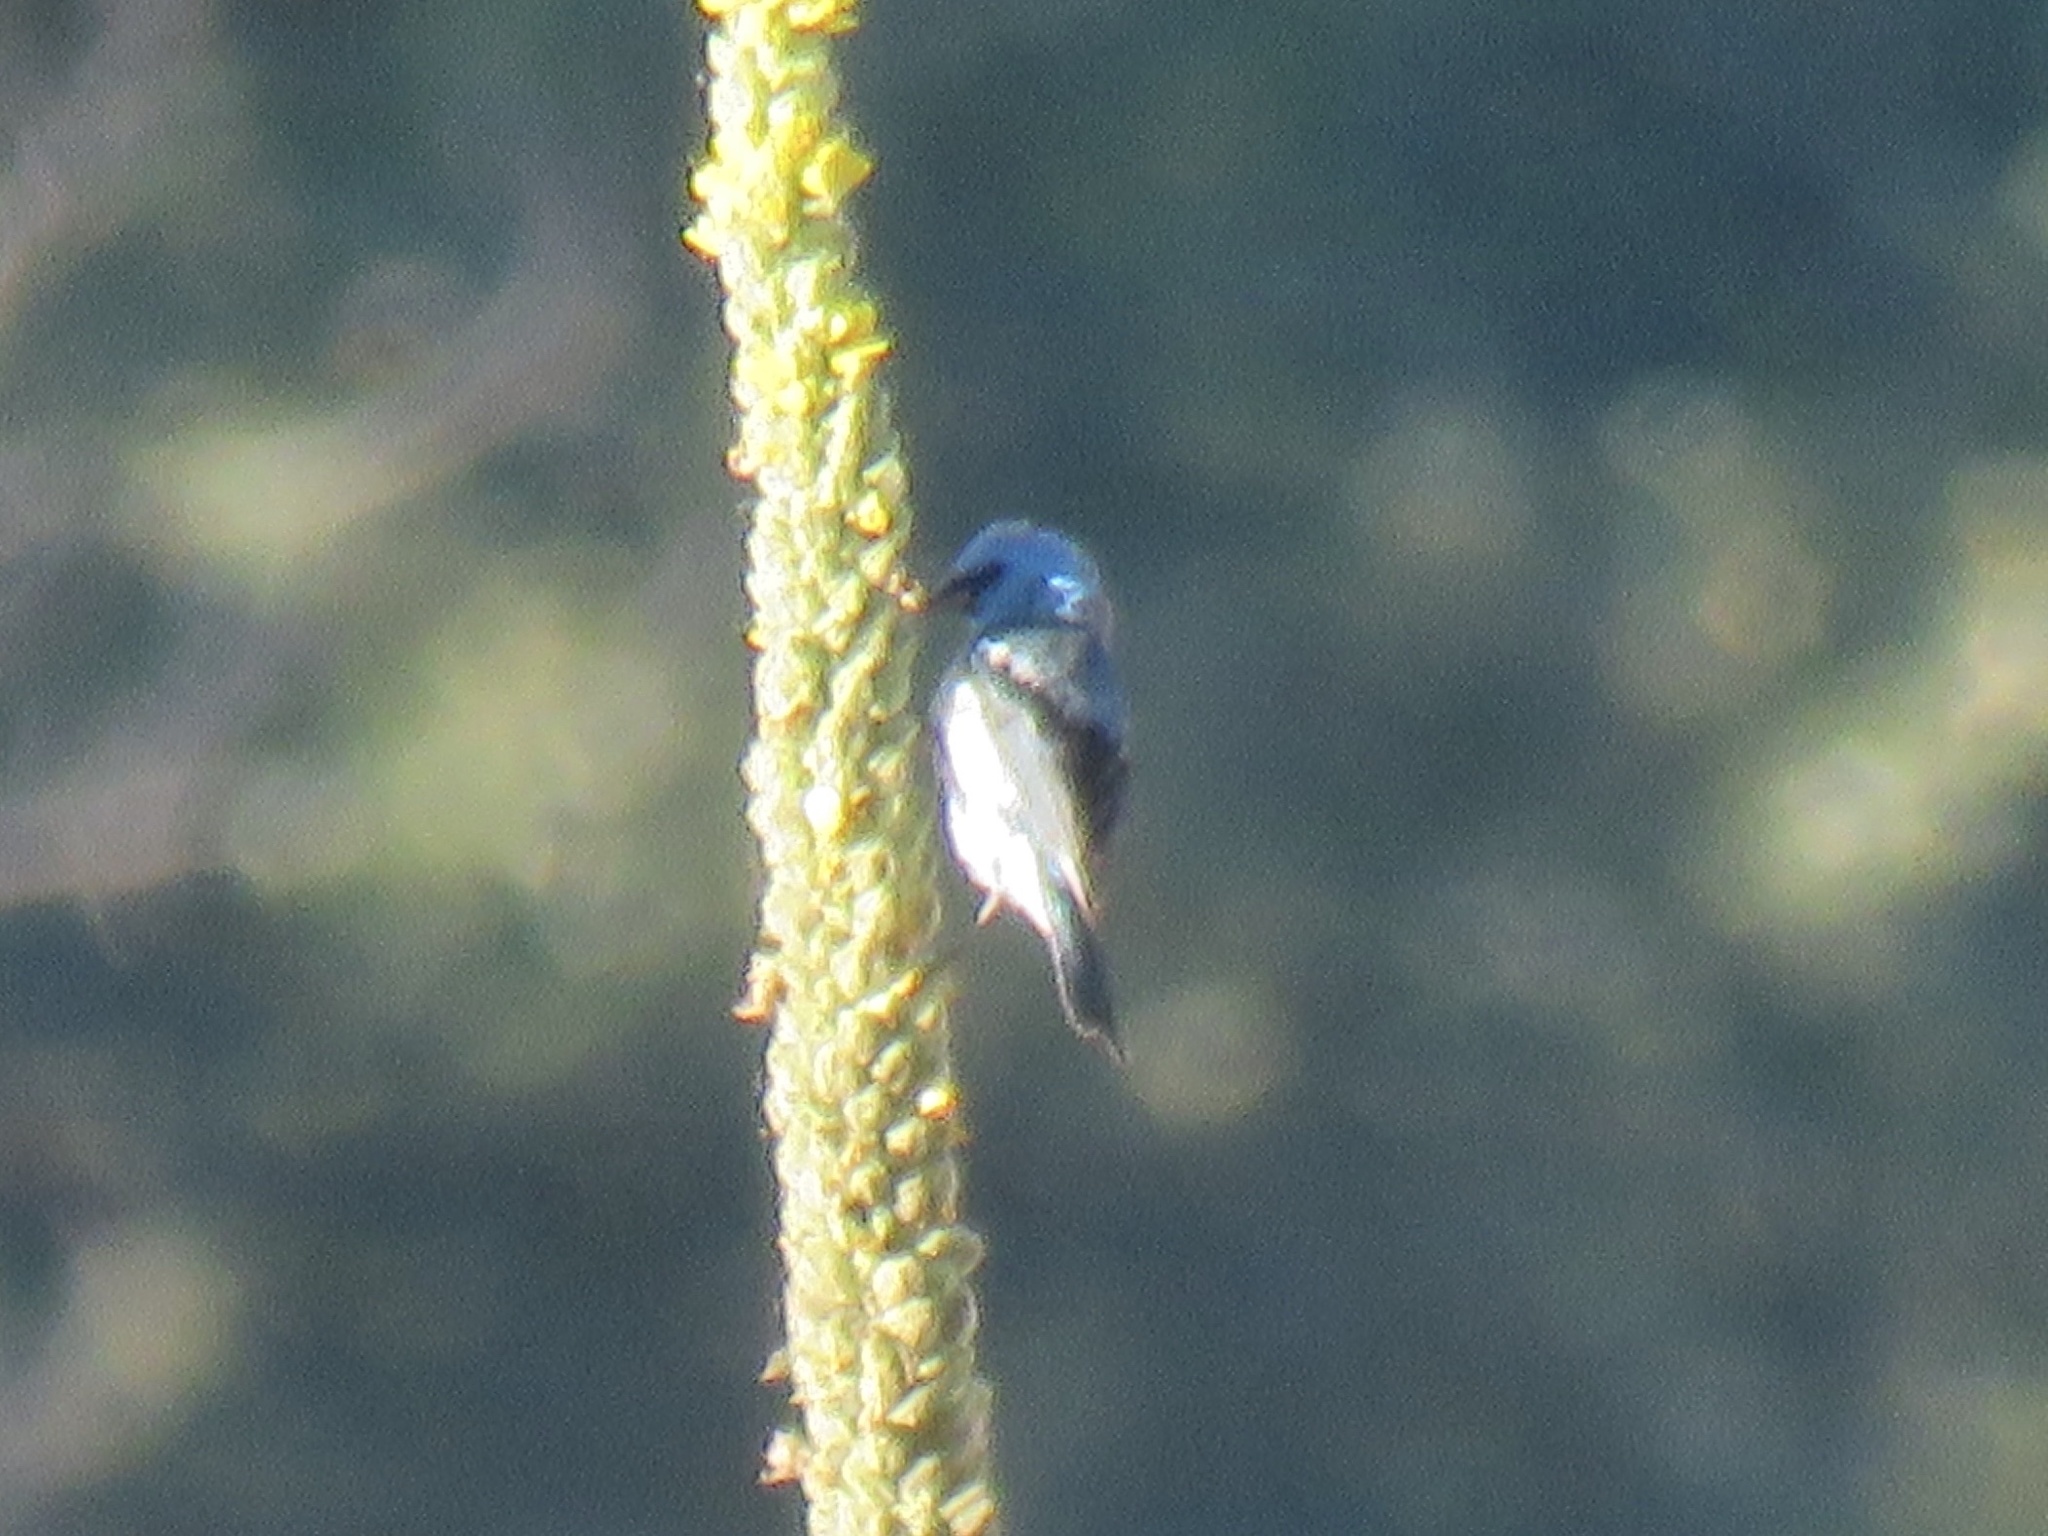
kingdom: Animalia
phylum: Chordata
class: Aves
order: Passeriformes
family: Cardinalidae
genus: Passerina
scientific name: Passerina amoena
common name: Lazuli bunting
